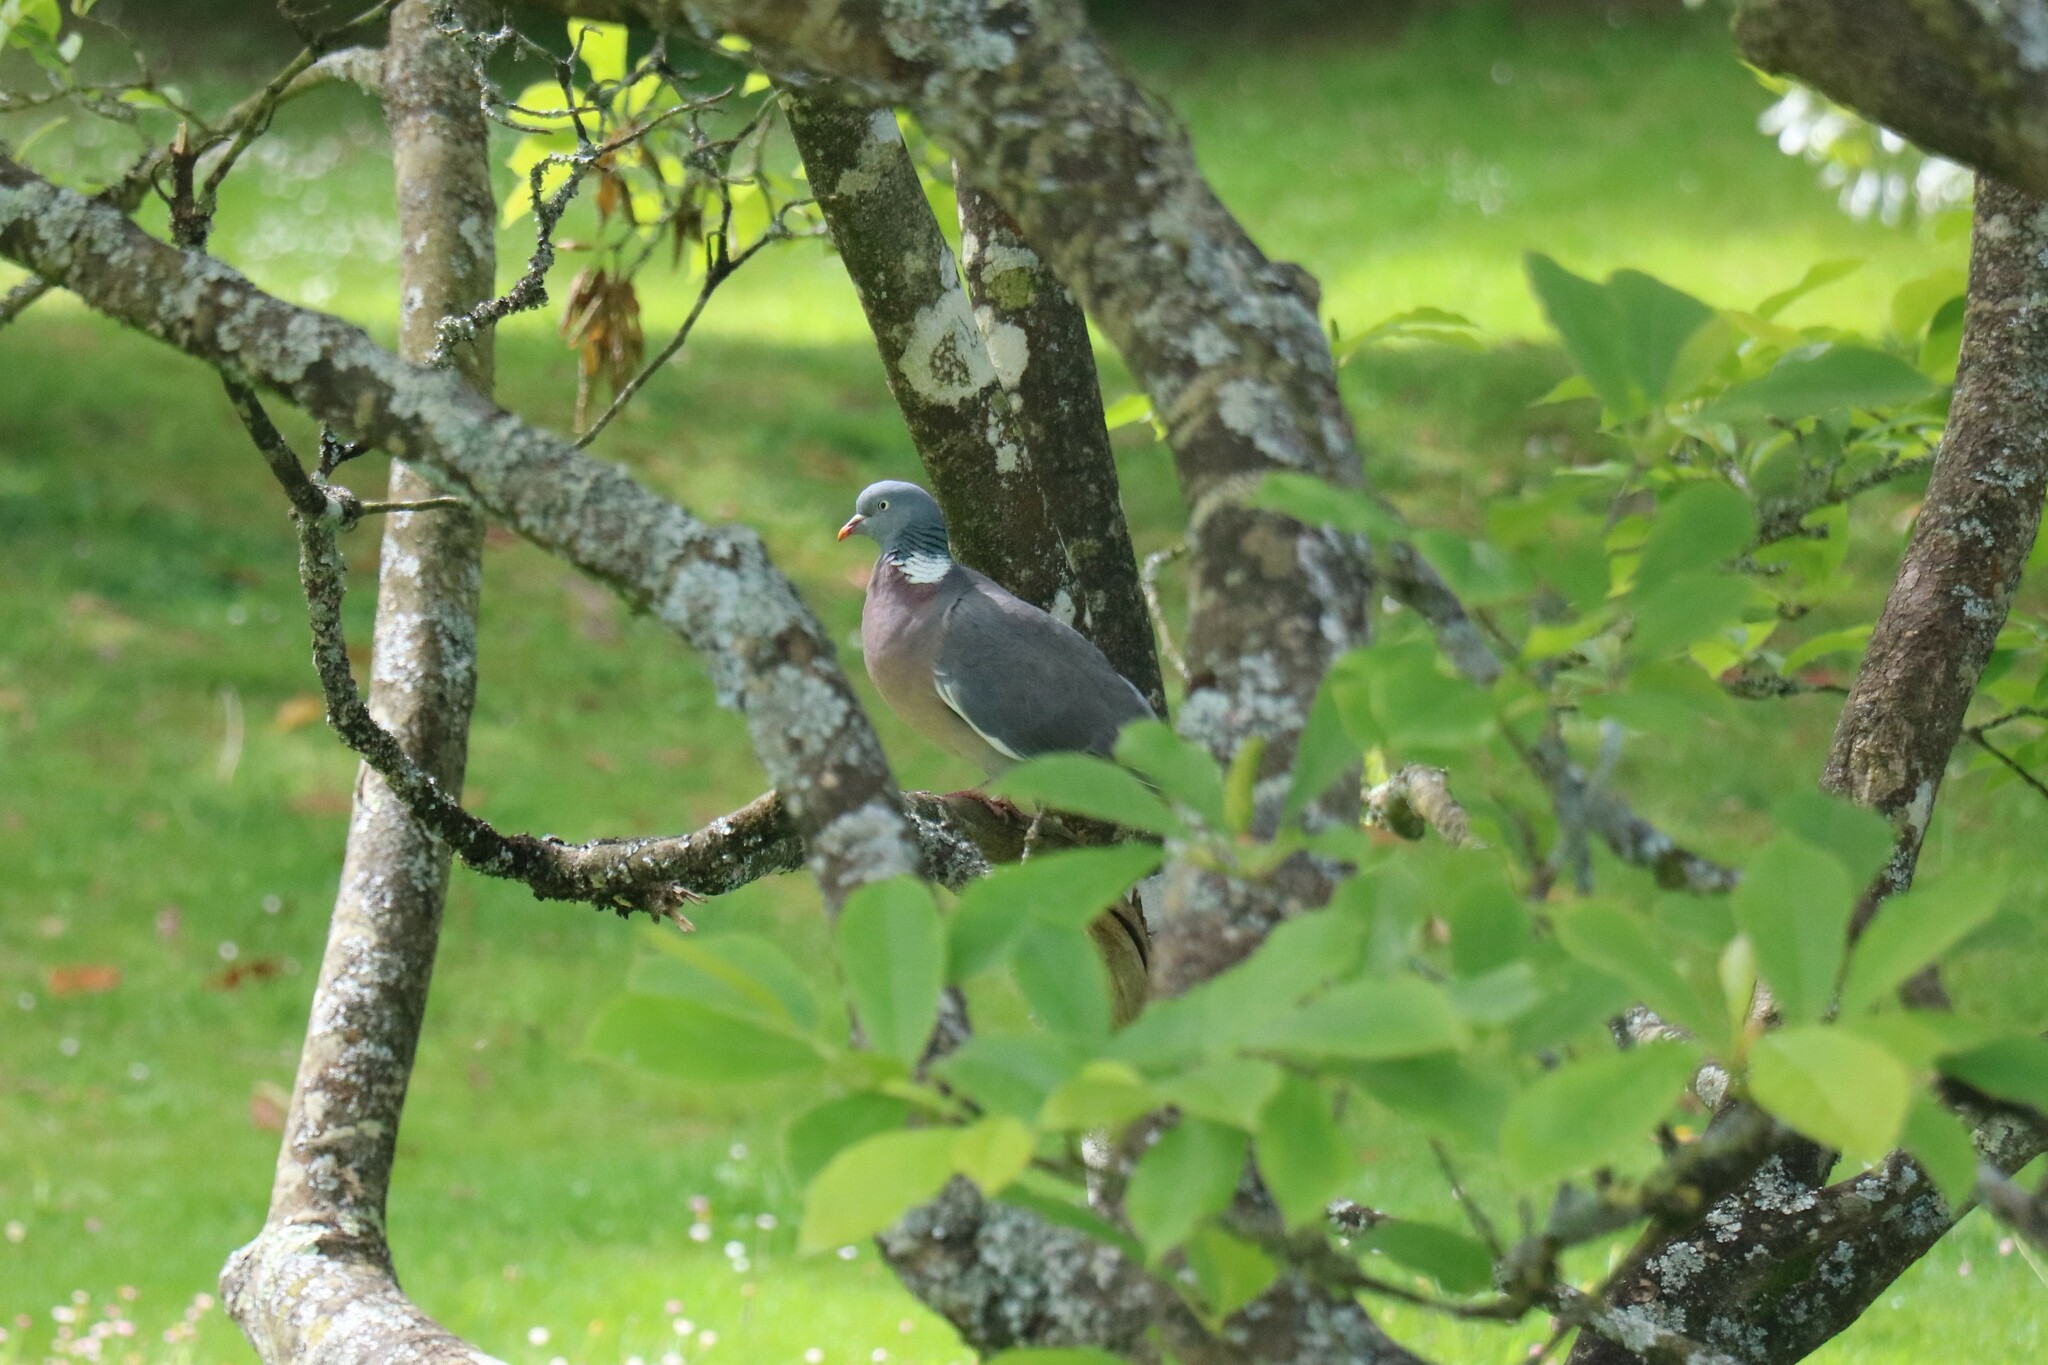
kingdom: Animalia
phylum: Chordata
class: Aves
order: Columbiformes
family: Columbidae
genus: Columba
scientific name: Columba palumbus
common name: Common wood pigeon
